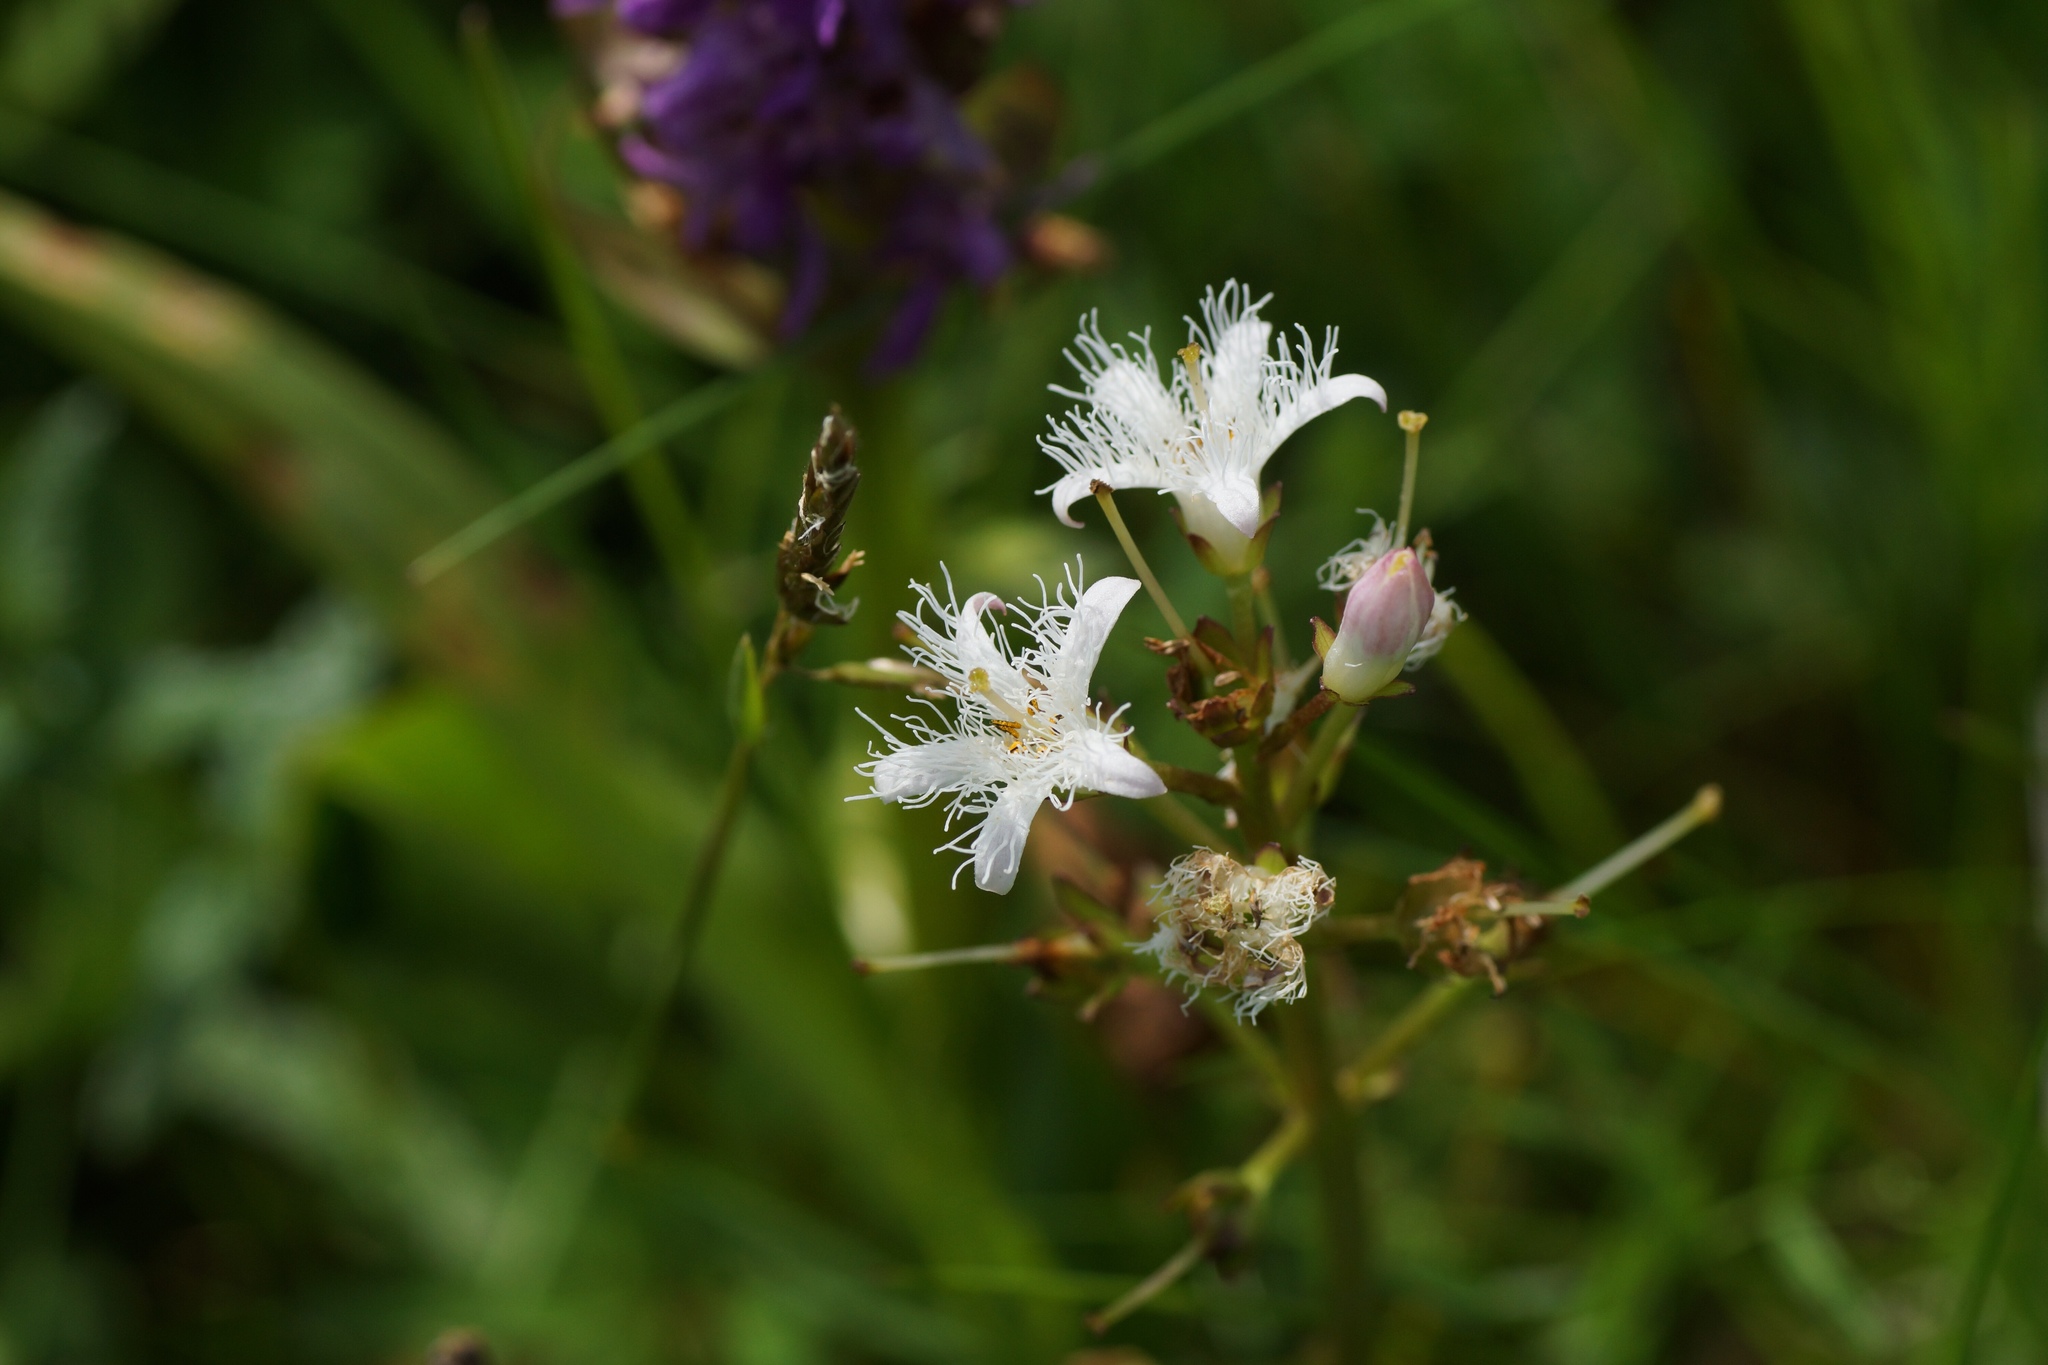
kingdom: Plantae
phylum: Tracheophyta
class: Magnoliopsida
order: Asterales
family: Menyanthaceae
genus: Menyanthes
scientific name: Menyanthes trifoliata
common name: Bogbean
